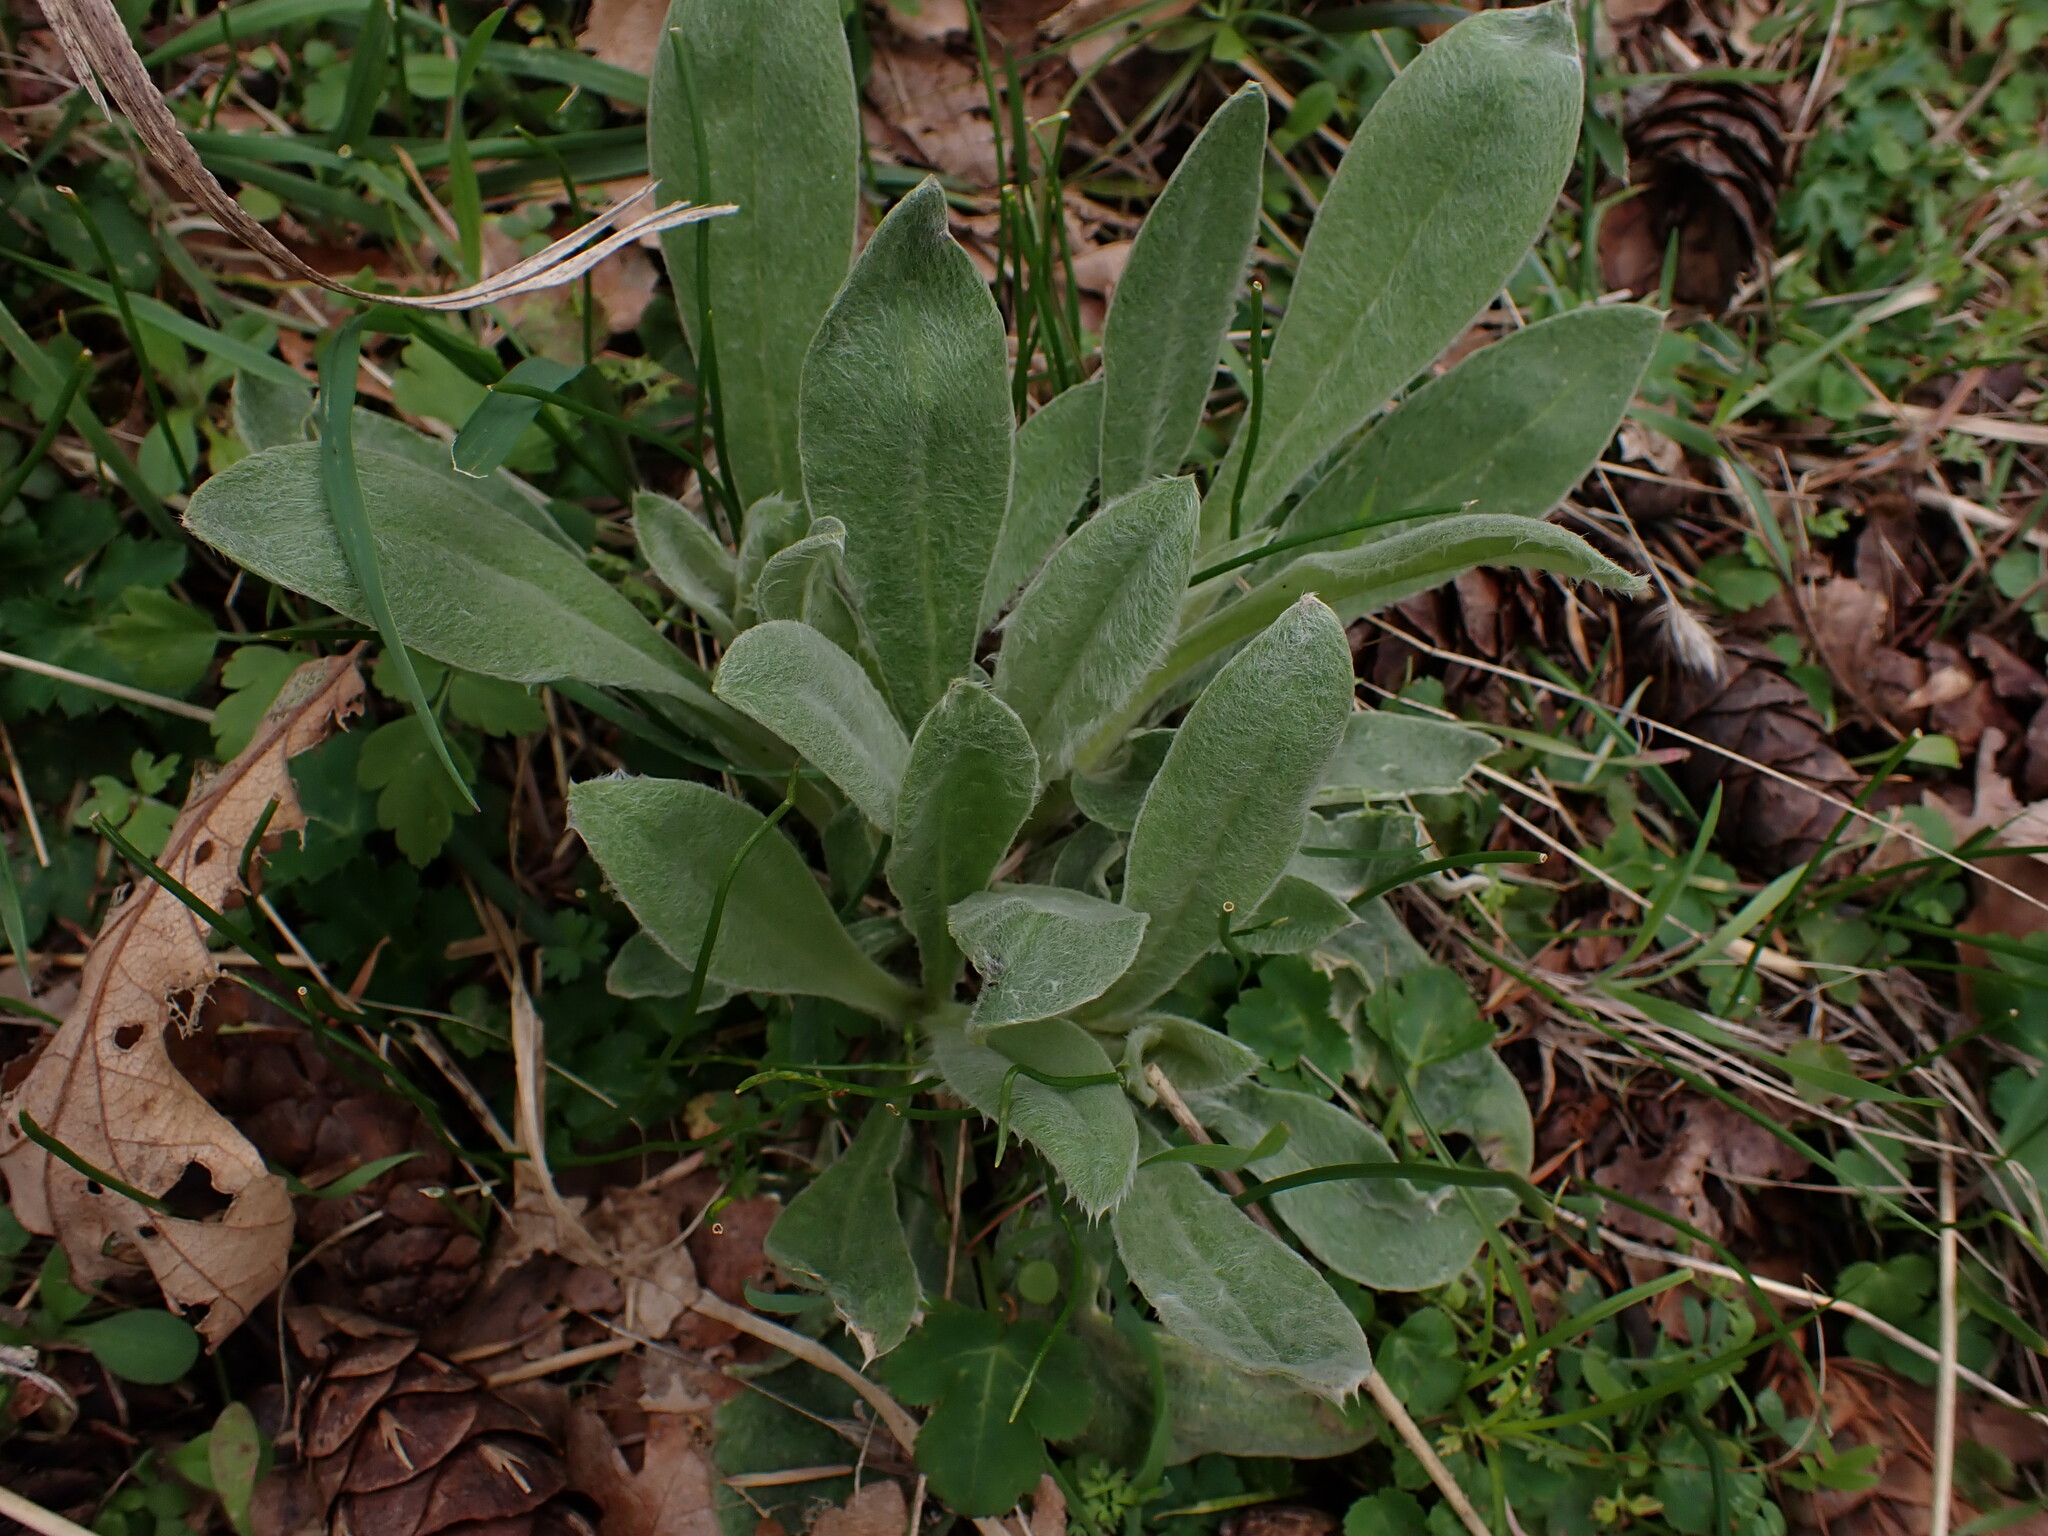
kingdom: Plantae
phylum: Tracheophyta
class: Magnoliopsida
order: Caryophyllales
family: Caryophyllaceae
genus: Silene
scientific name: Silene coronaria
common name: Rose campion
